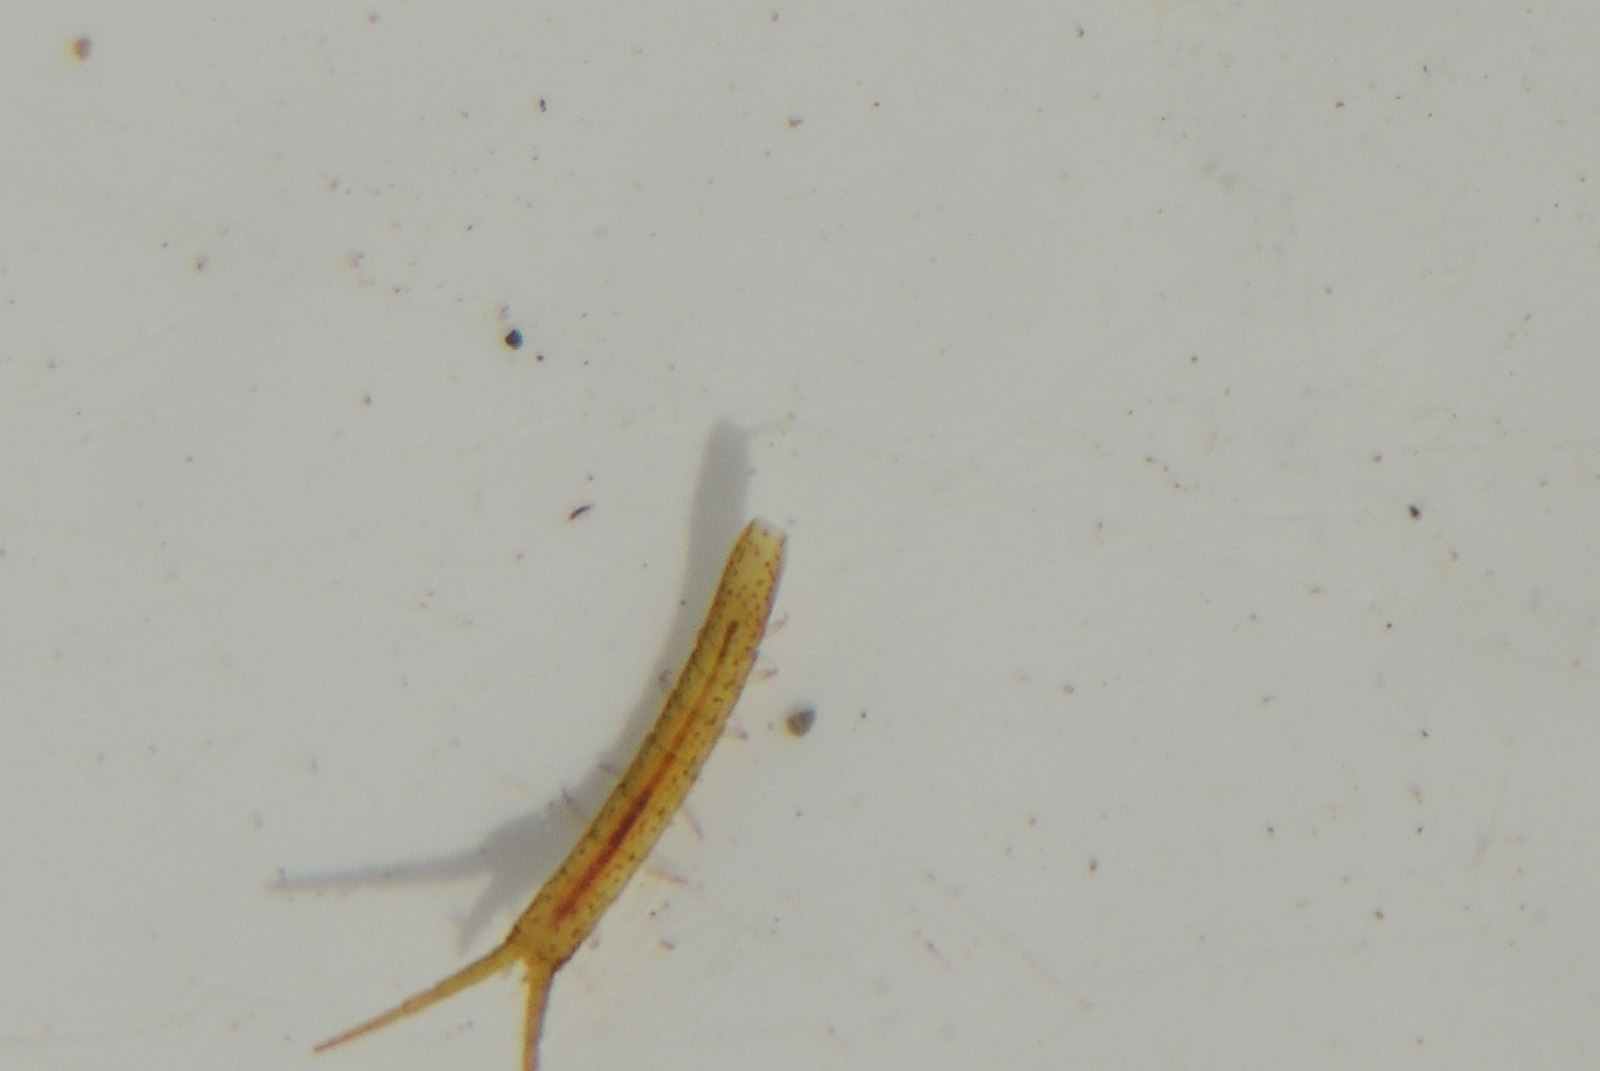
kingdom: Animalia
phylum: Arthropoda
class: Malacostraca
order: Isopoda
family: Idoteidae
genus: Pentidotea
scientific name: Pentidotea kirchanskii
